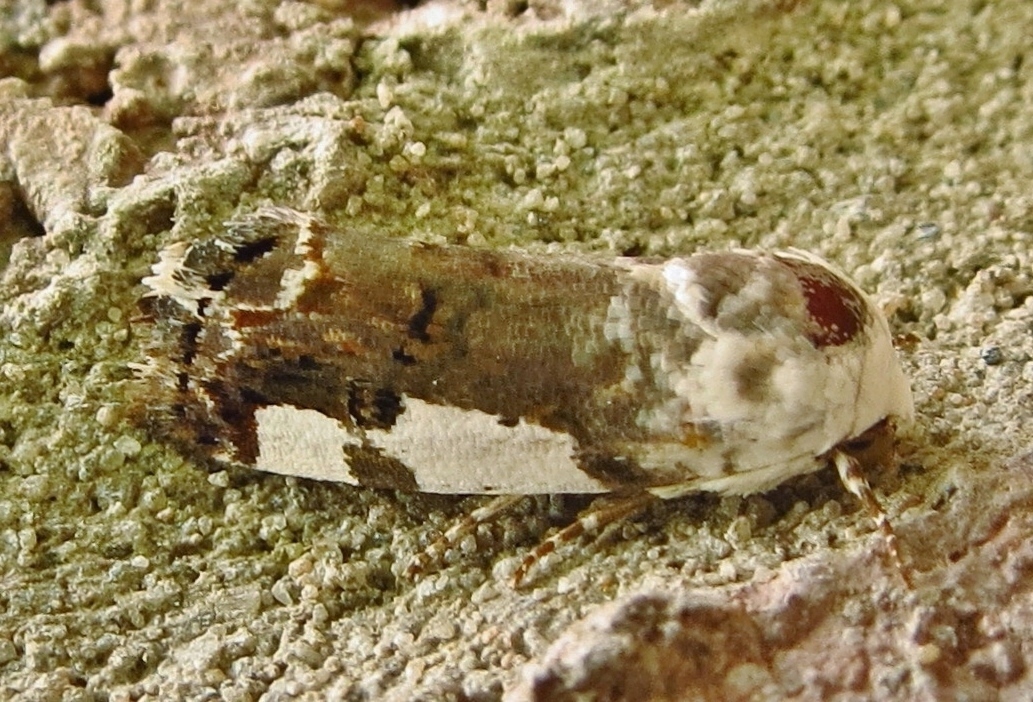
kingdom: Animalia
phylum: Arthropoda
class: Insecta
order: Lepidoptera
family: Noctuidae
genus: Acontia
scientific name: Acontia quadriplaga
